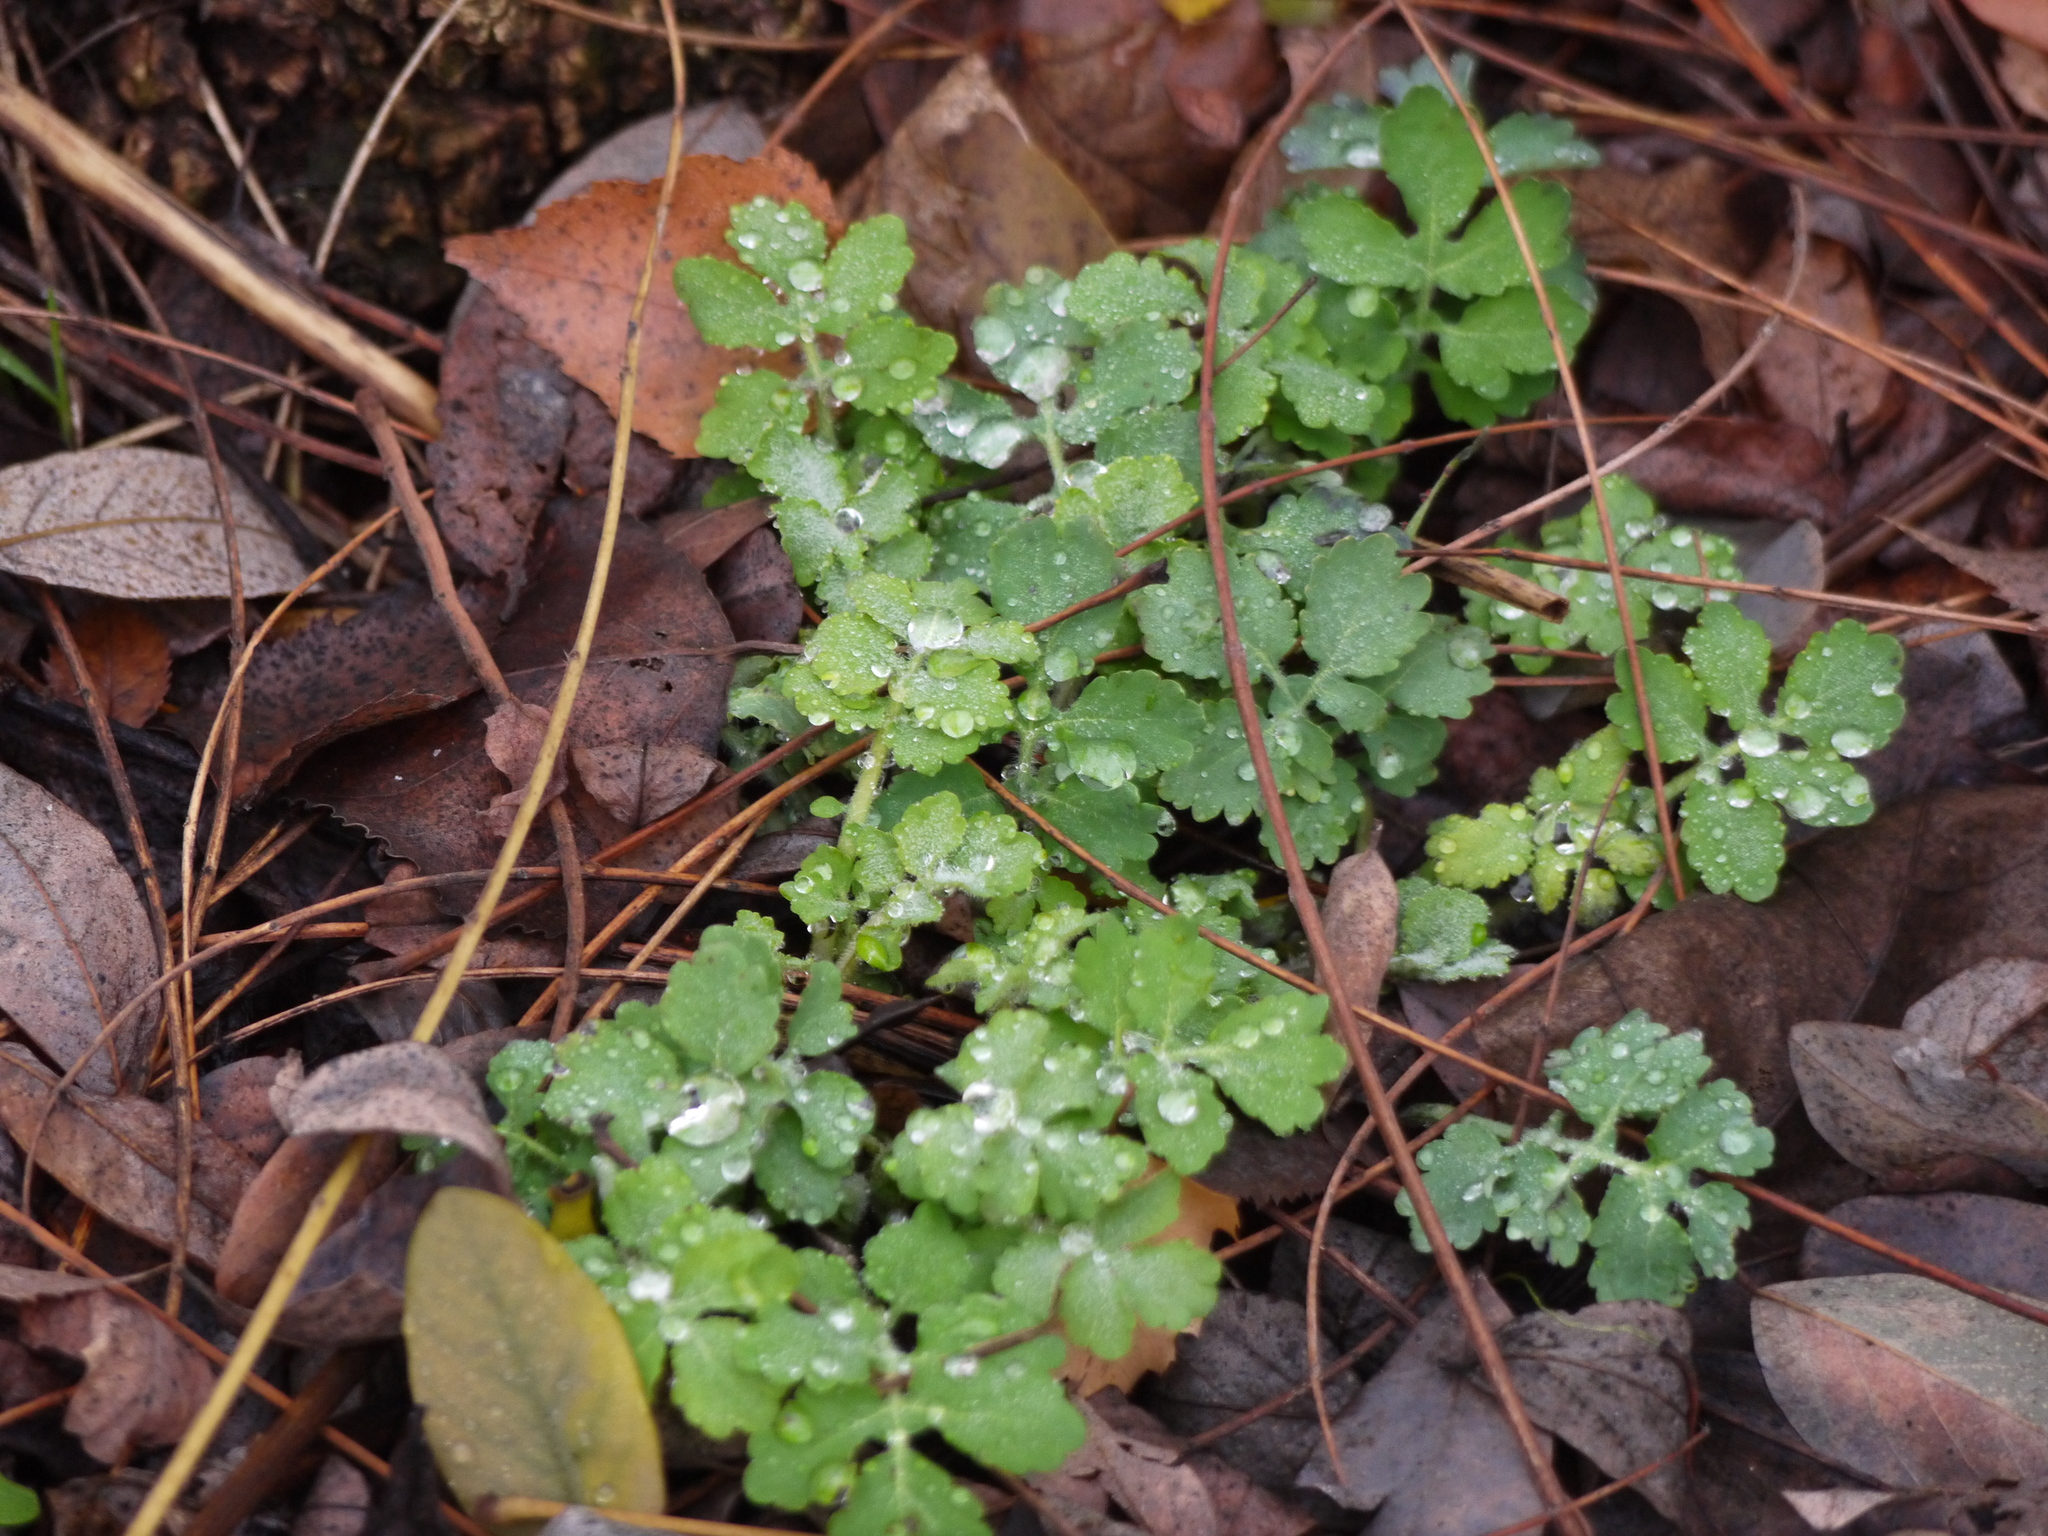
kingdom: Plantae
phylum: Tracheophyta
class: Magnoliopsida
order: Ranunculales
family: Papaveraceae
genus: Chelidonium
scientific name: Chelidonium majus
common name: Greater celandine
